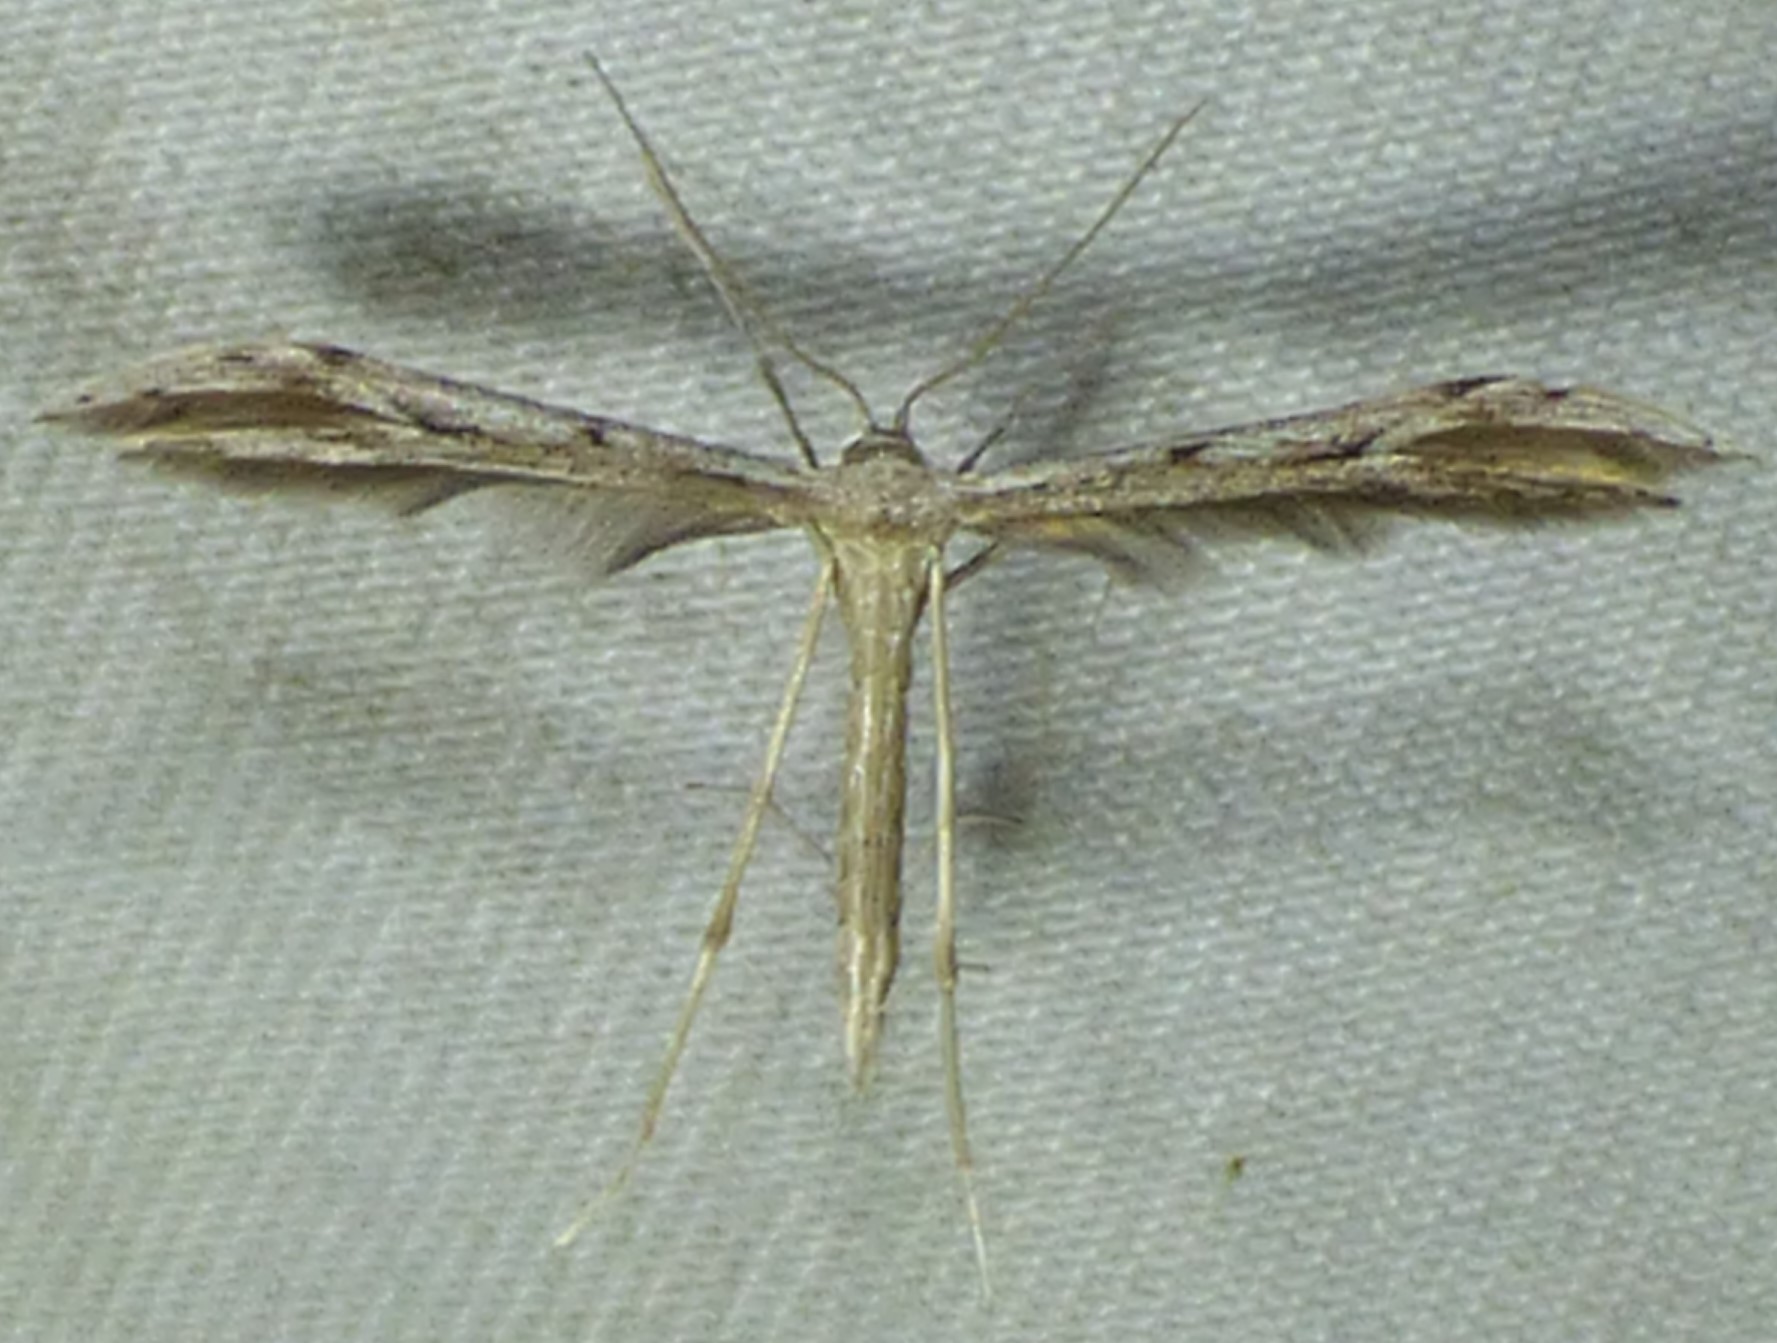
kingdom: Animalia
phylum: Arthropoda
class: Insecta
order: Lepidoptera
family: Pterophoridae
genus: Pselnophorus
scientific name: Pselnophorus belfragei
